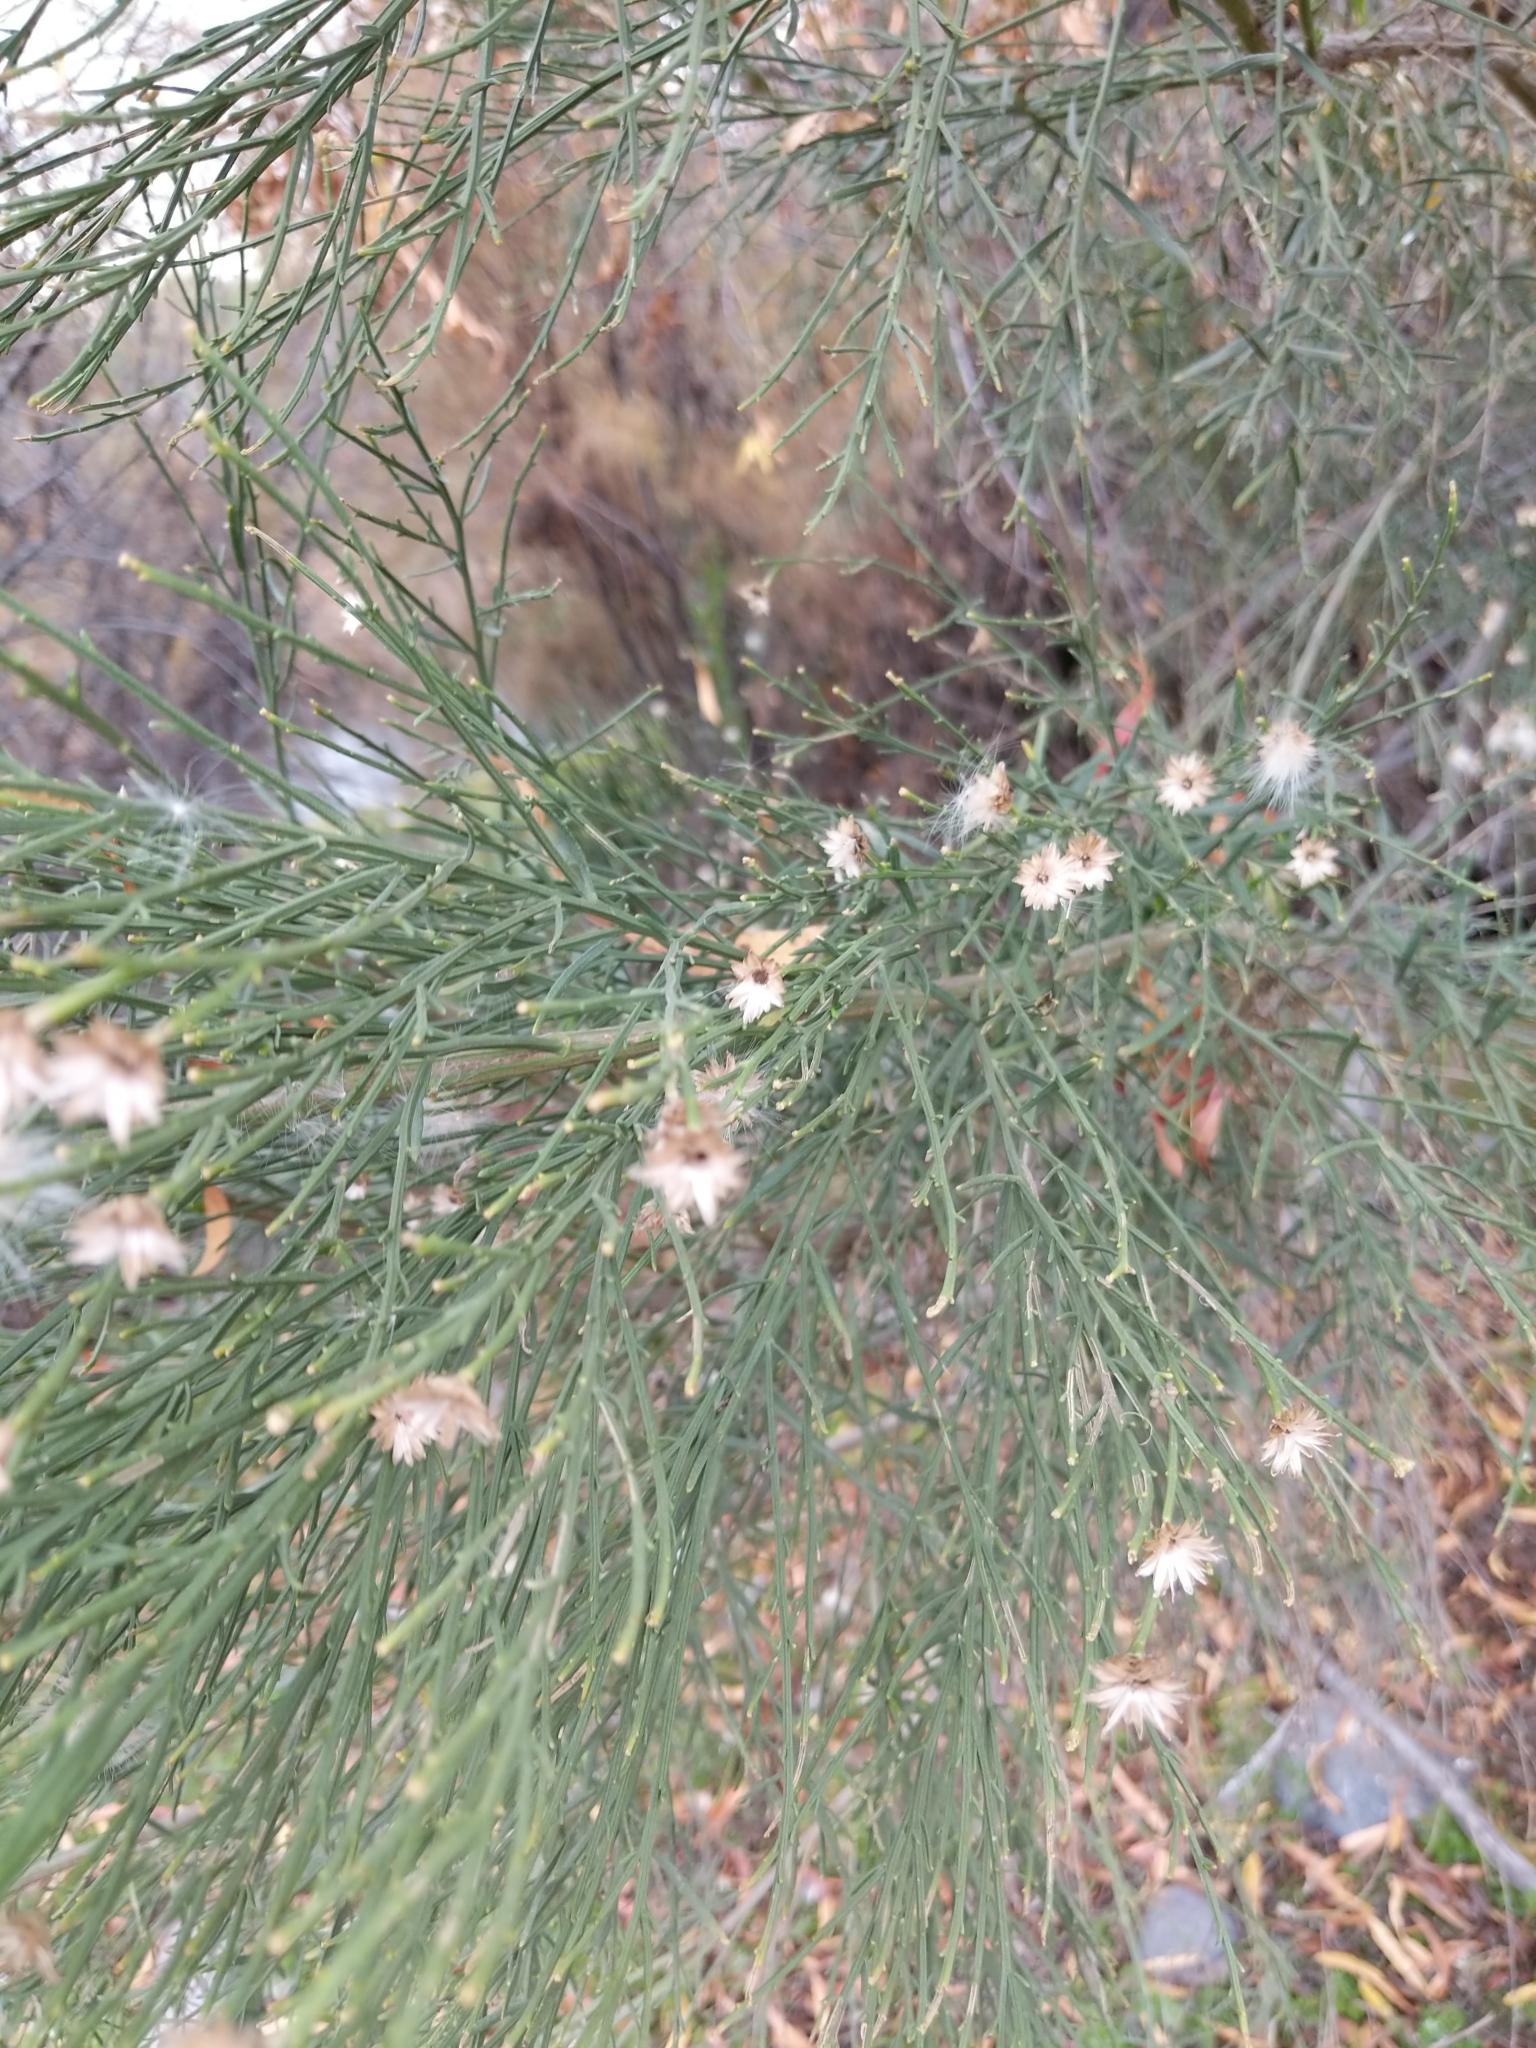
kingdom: Plantae
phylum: Tracheophyta
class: Magnoliopsida
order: Asterales
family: Asteraceae
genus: Baccharis
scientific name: Baccharis sarothroides
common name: Desert-broom
